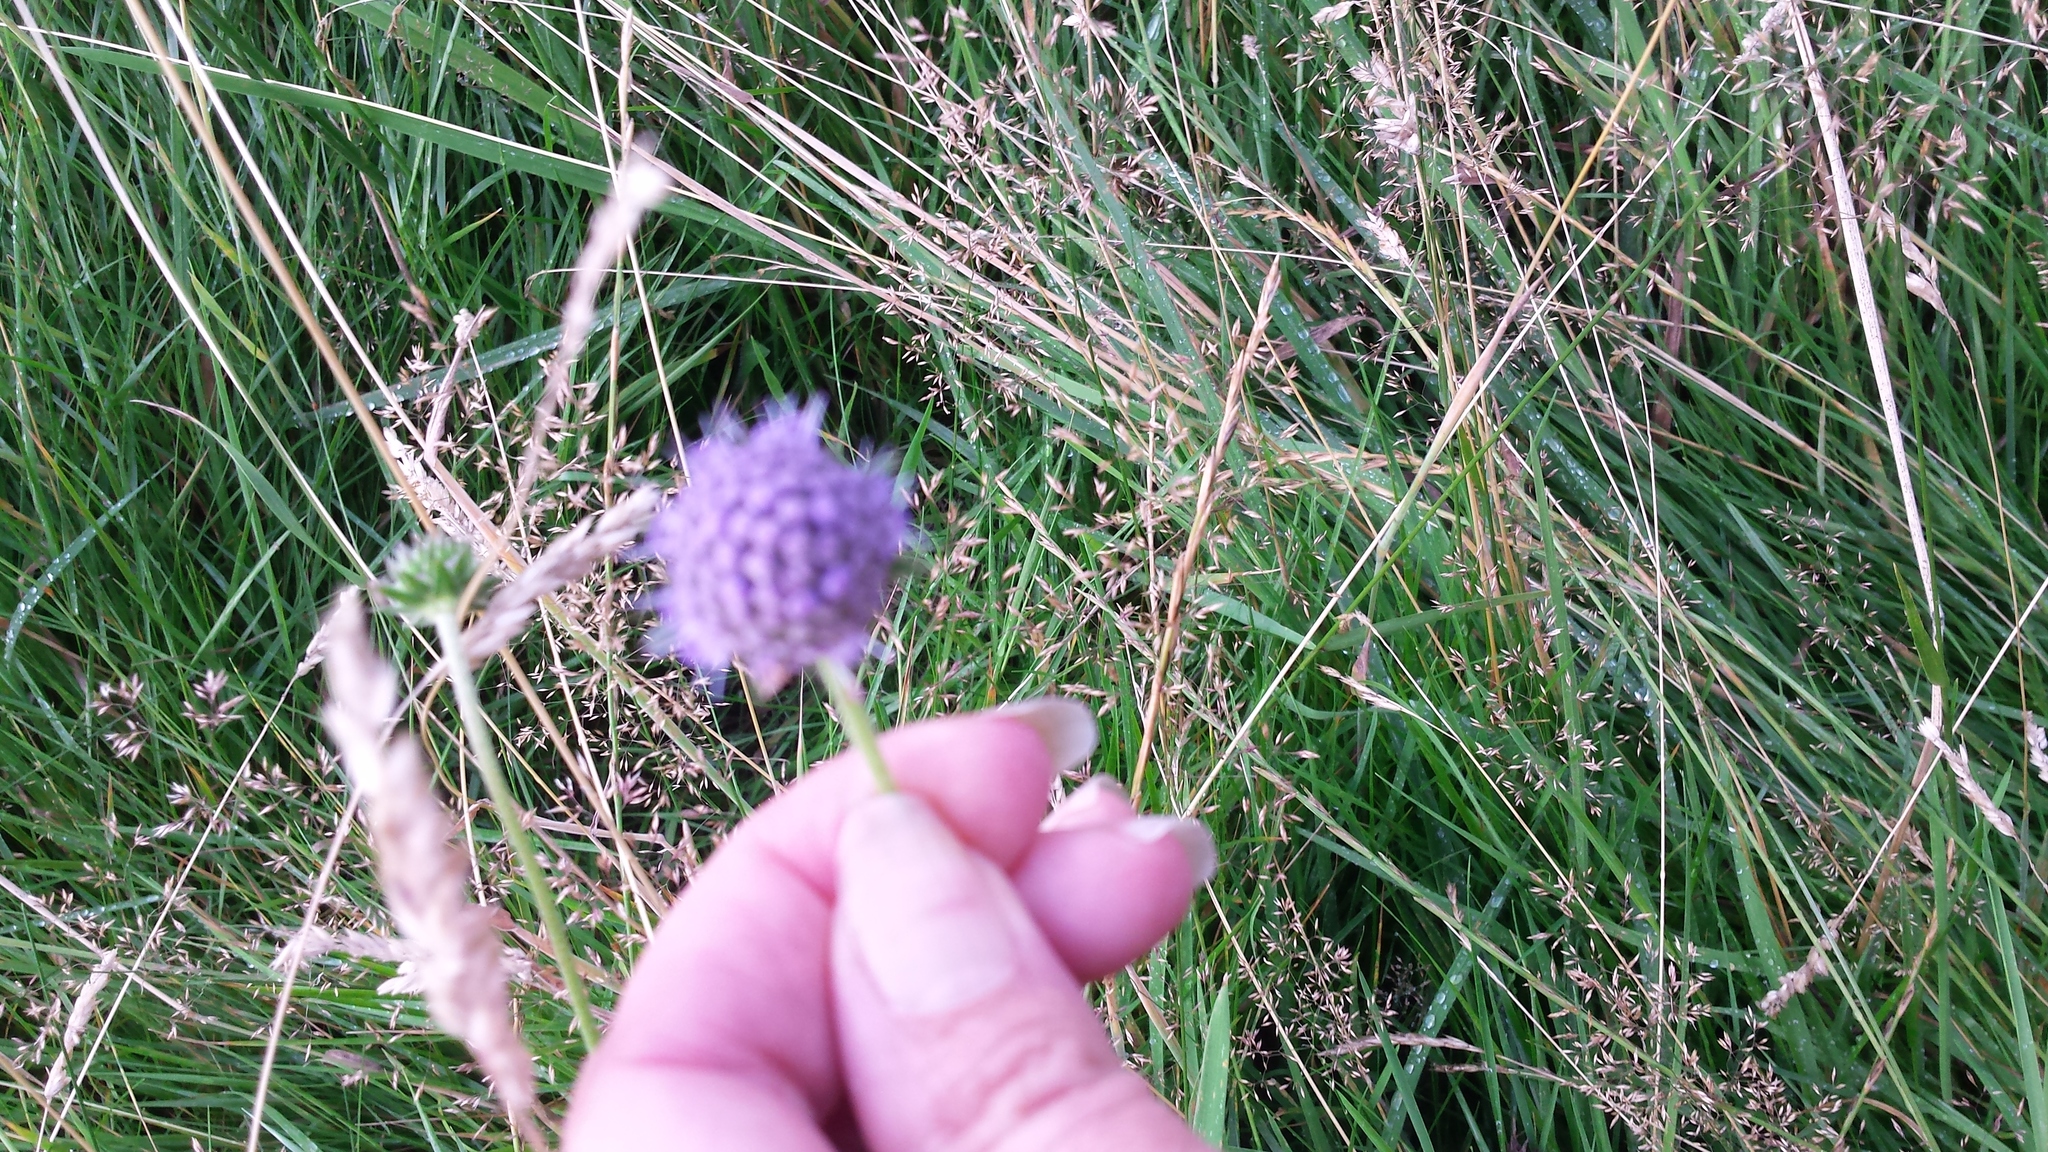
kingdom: Plantae
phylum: Tracheophyta
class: Magnoliopsida
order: Dipsacales
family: Caprifoliaceae
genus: Knautia
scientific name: Knautia arvensis
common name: Field scabiosa
